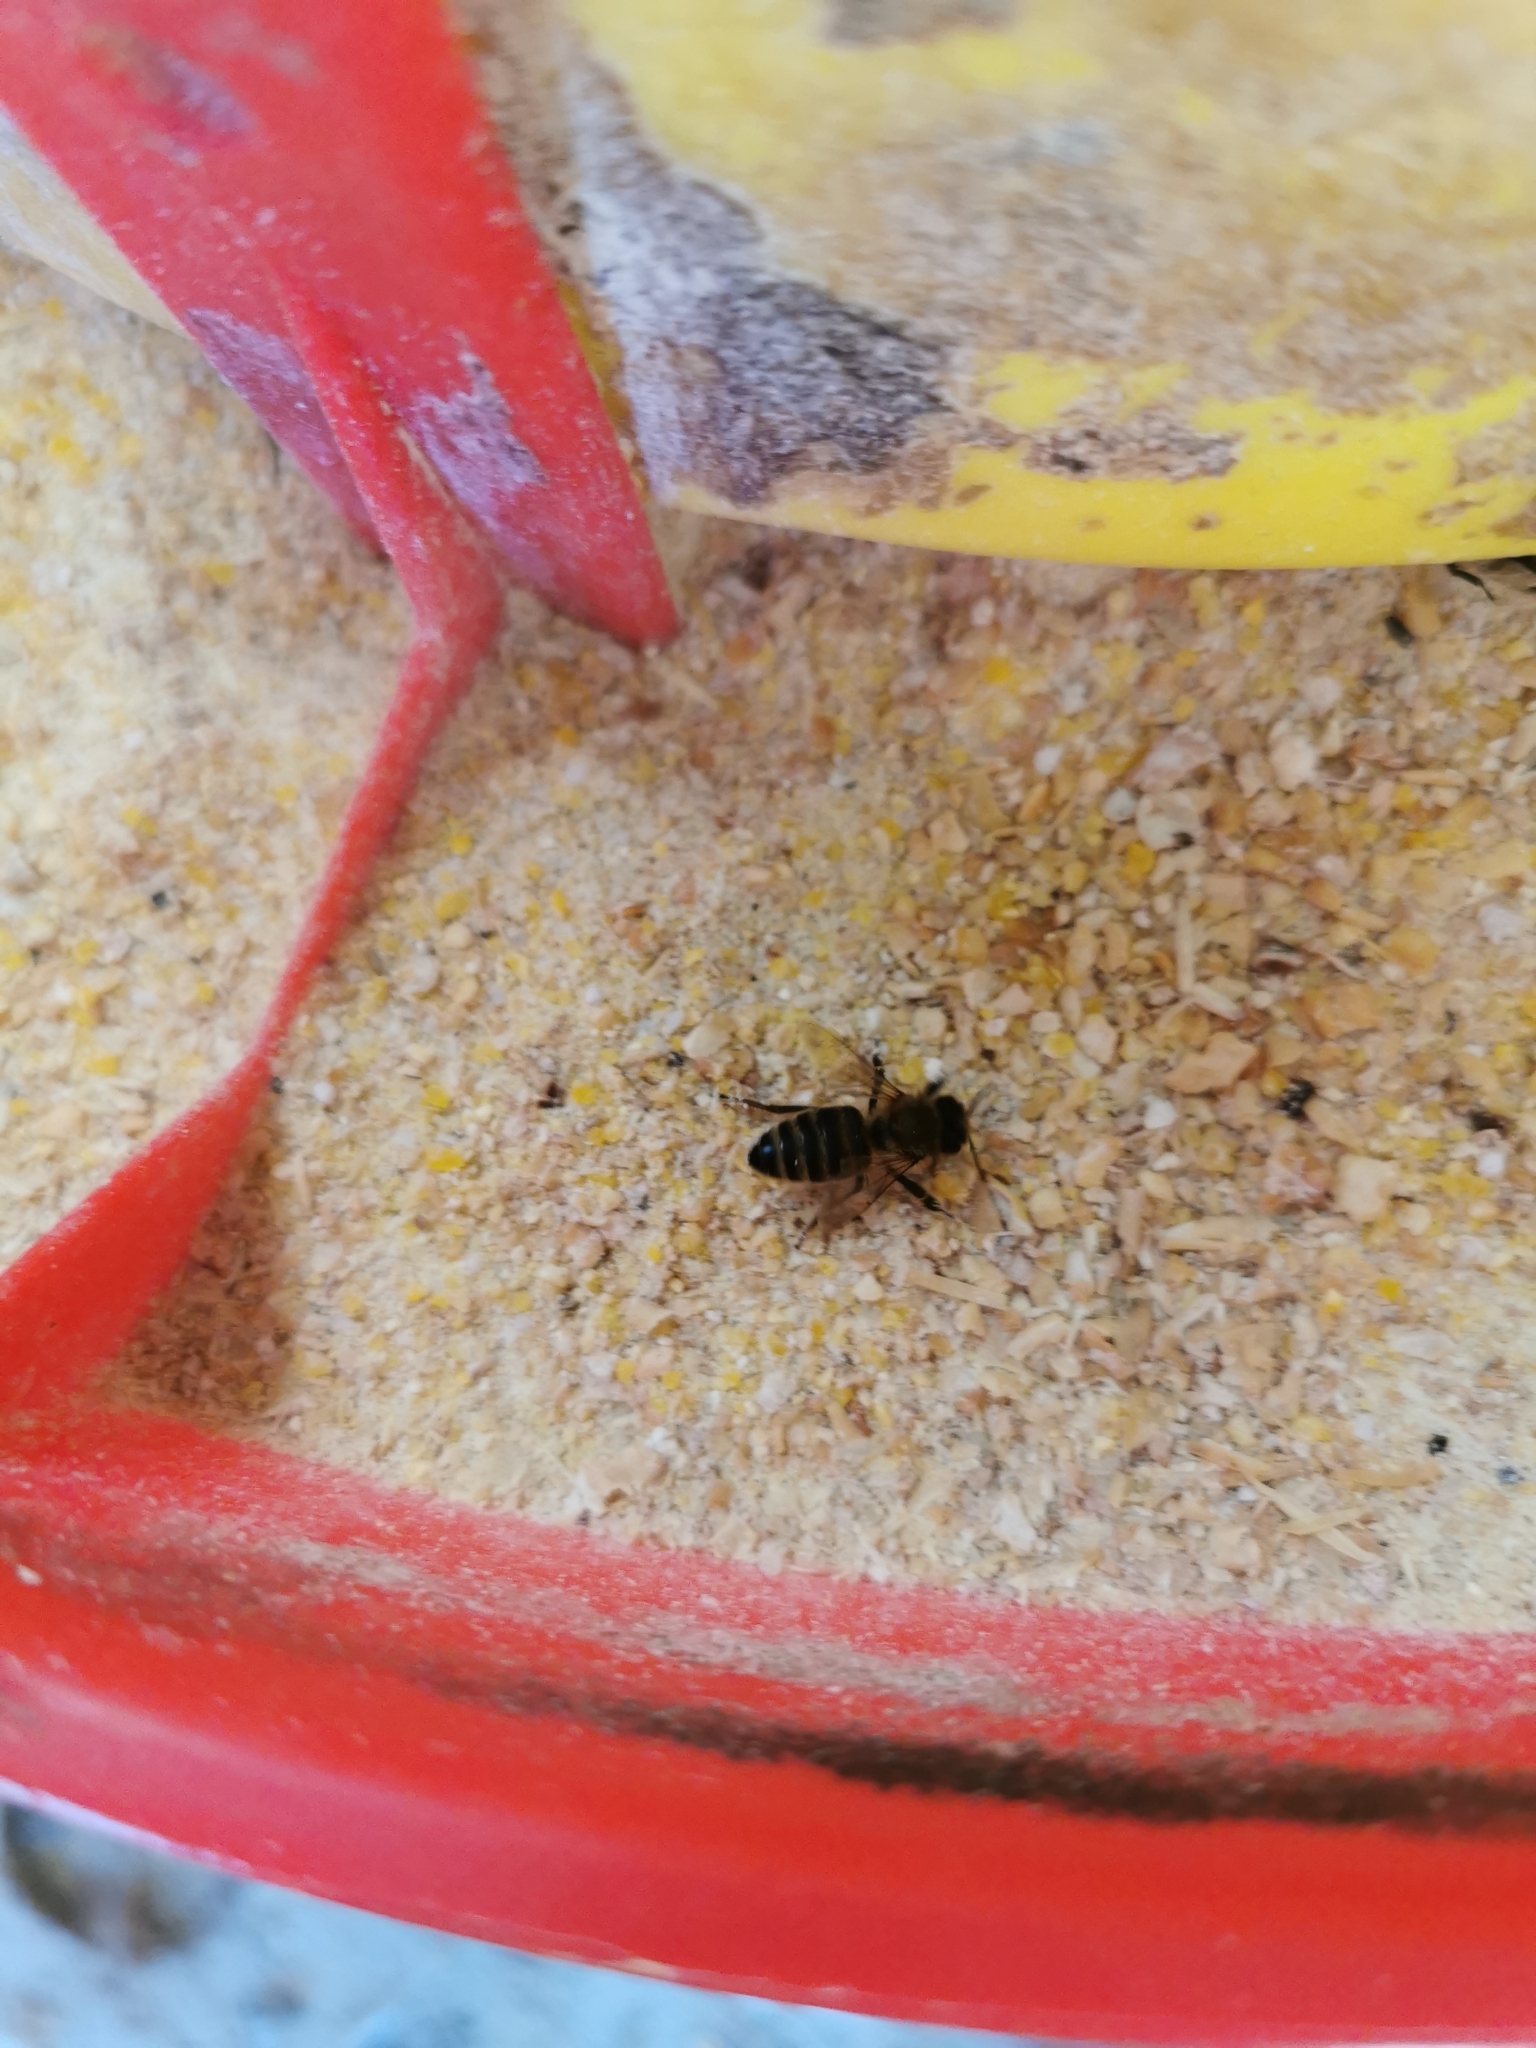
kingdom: Animalia
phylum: Arthropoda
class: Insecta
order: Hymenoptera
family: Apidae
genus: Apis
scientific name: Apis mellifera
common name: Honey bee
